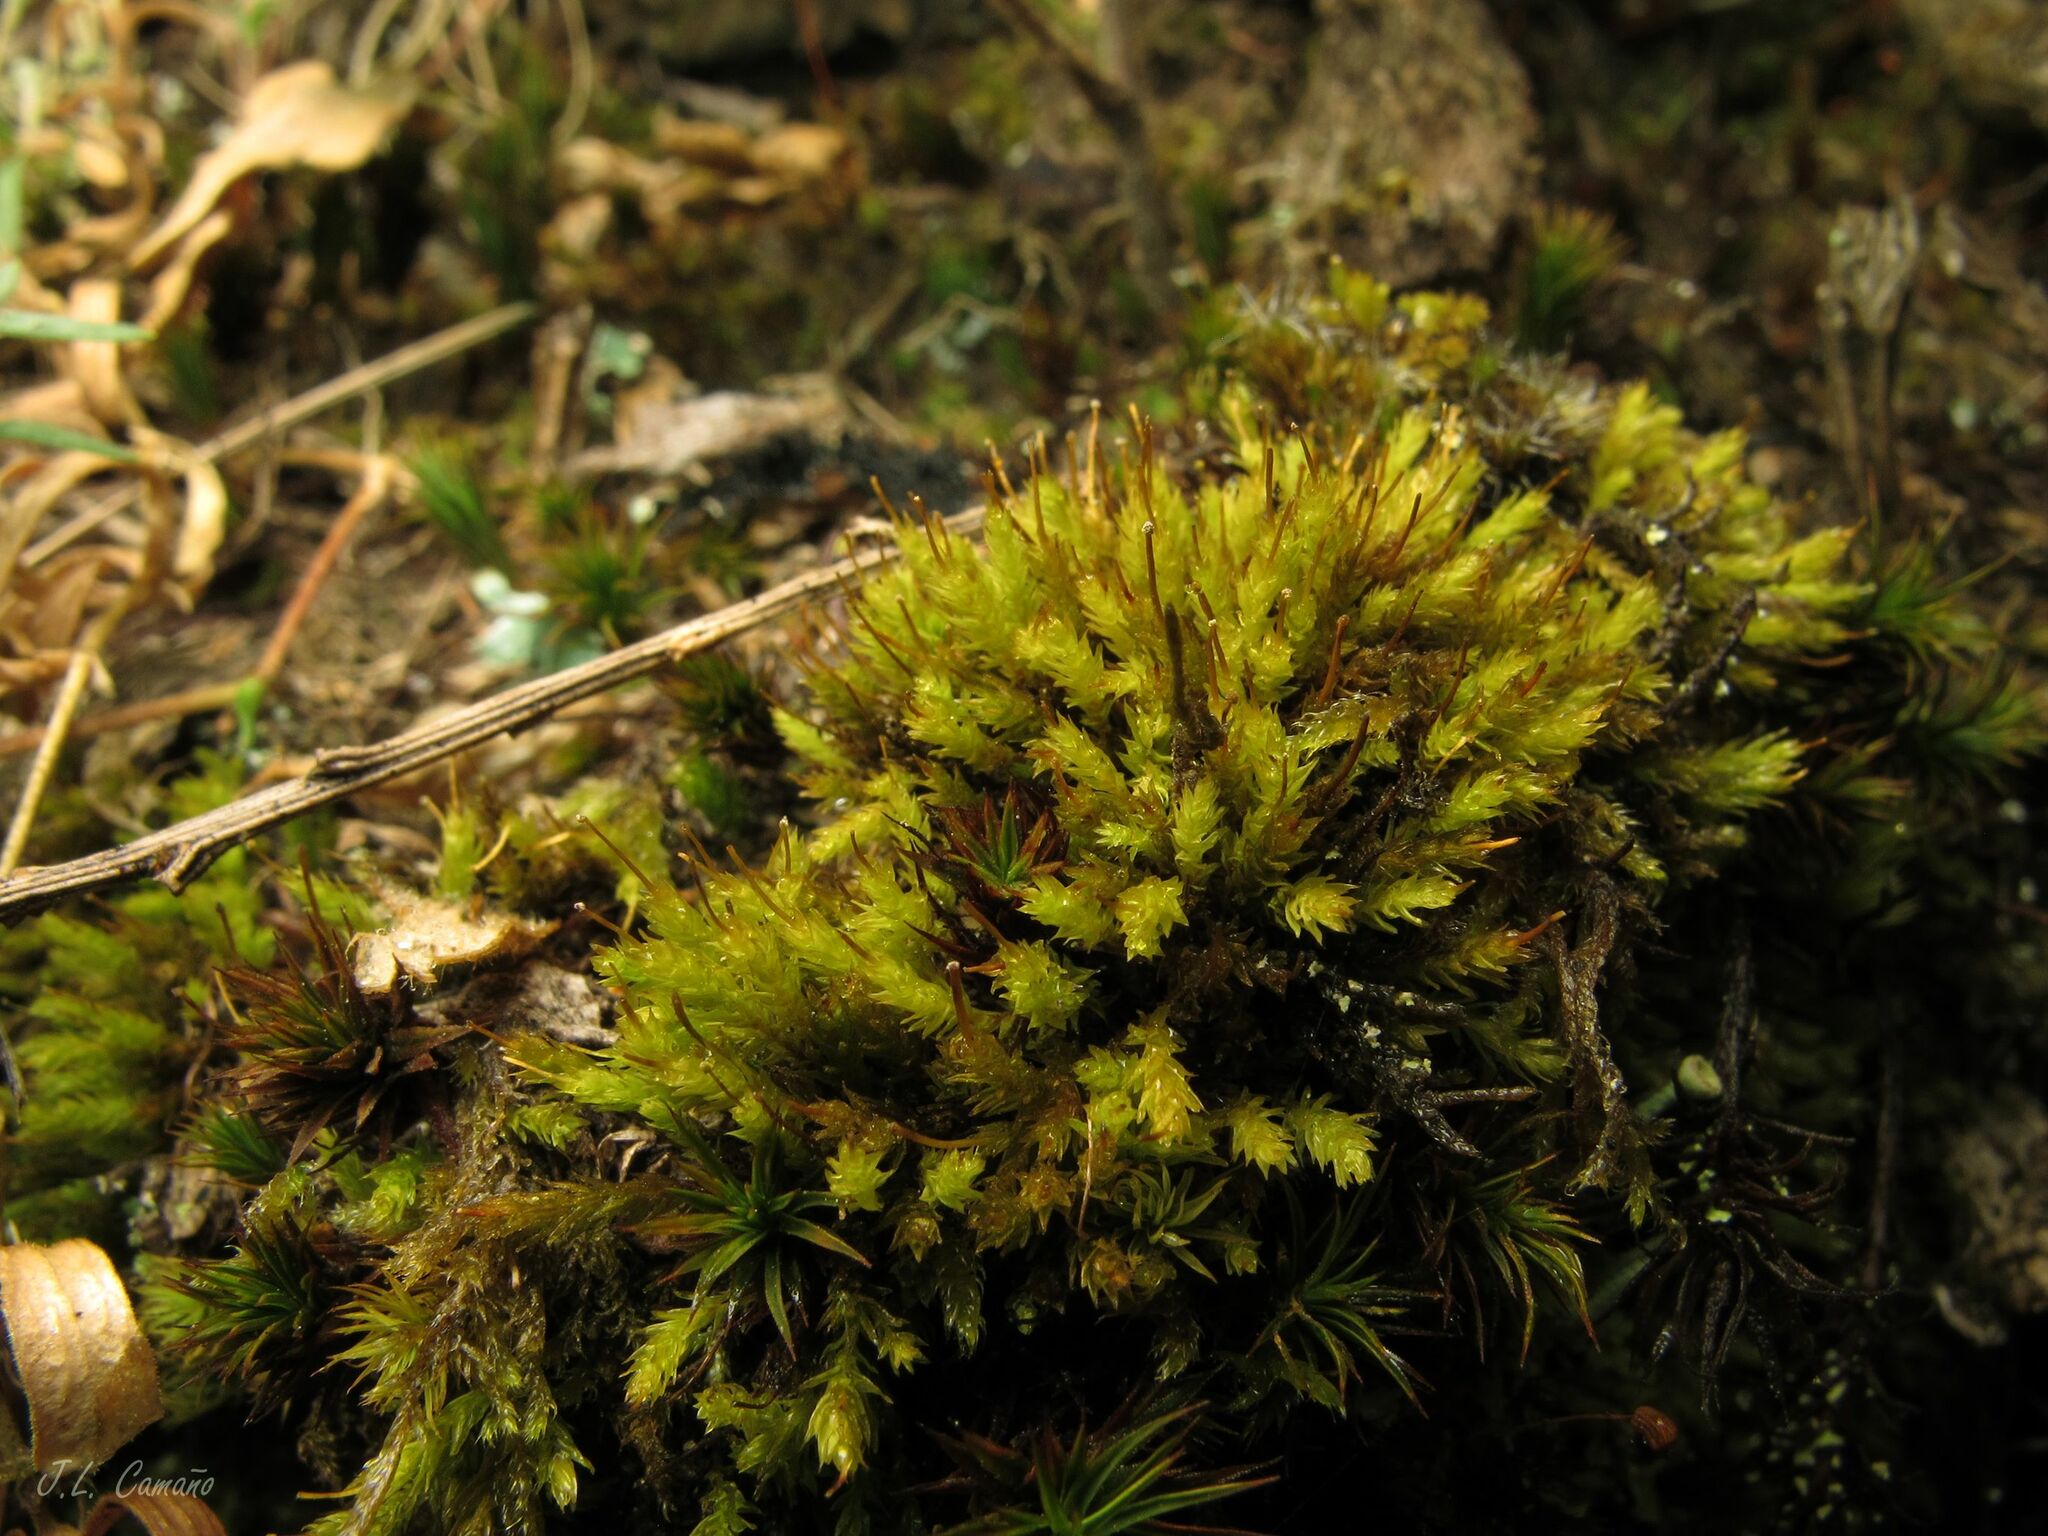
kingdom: Plantae
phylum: Bryophyta
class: Bryopsida
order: Aulacomniales
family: Aulacomniaceae
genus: Aulacomnium
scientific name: Aulacomnium androgynum
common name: Little groove moss
